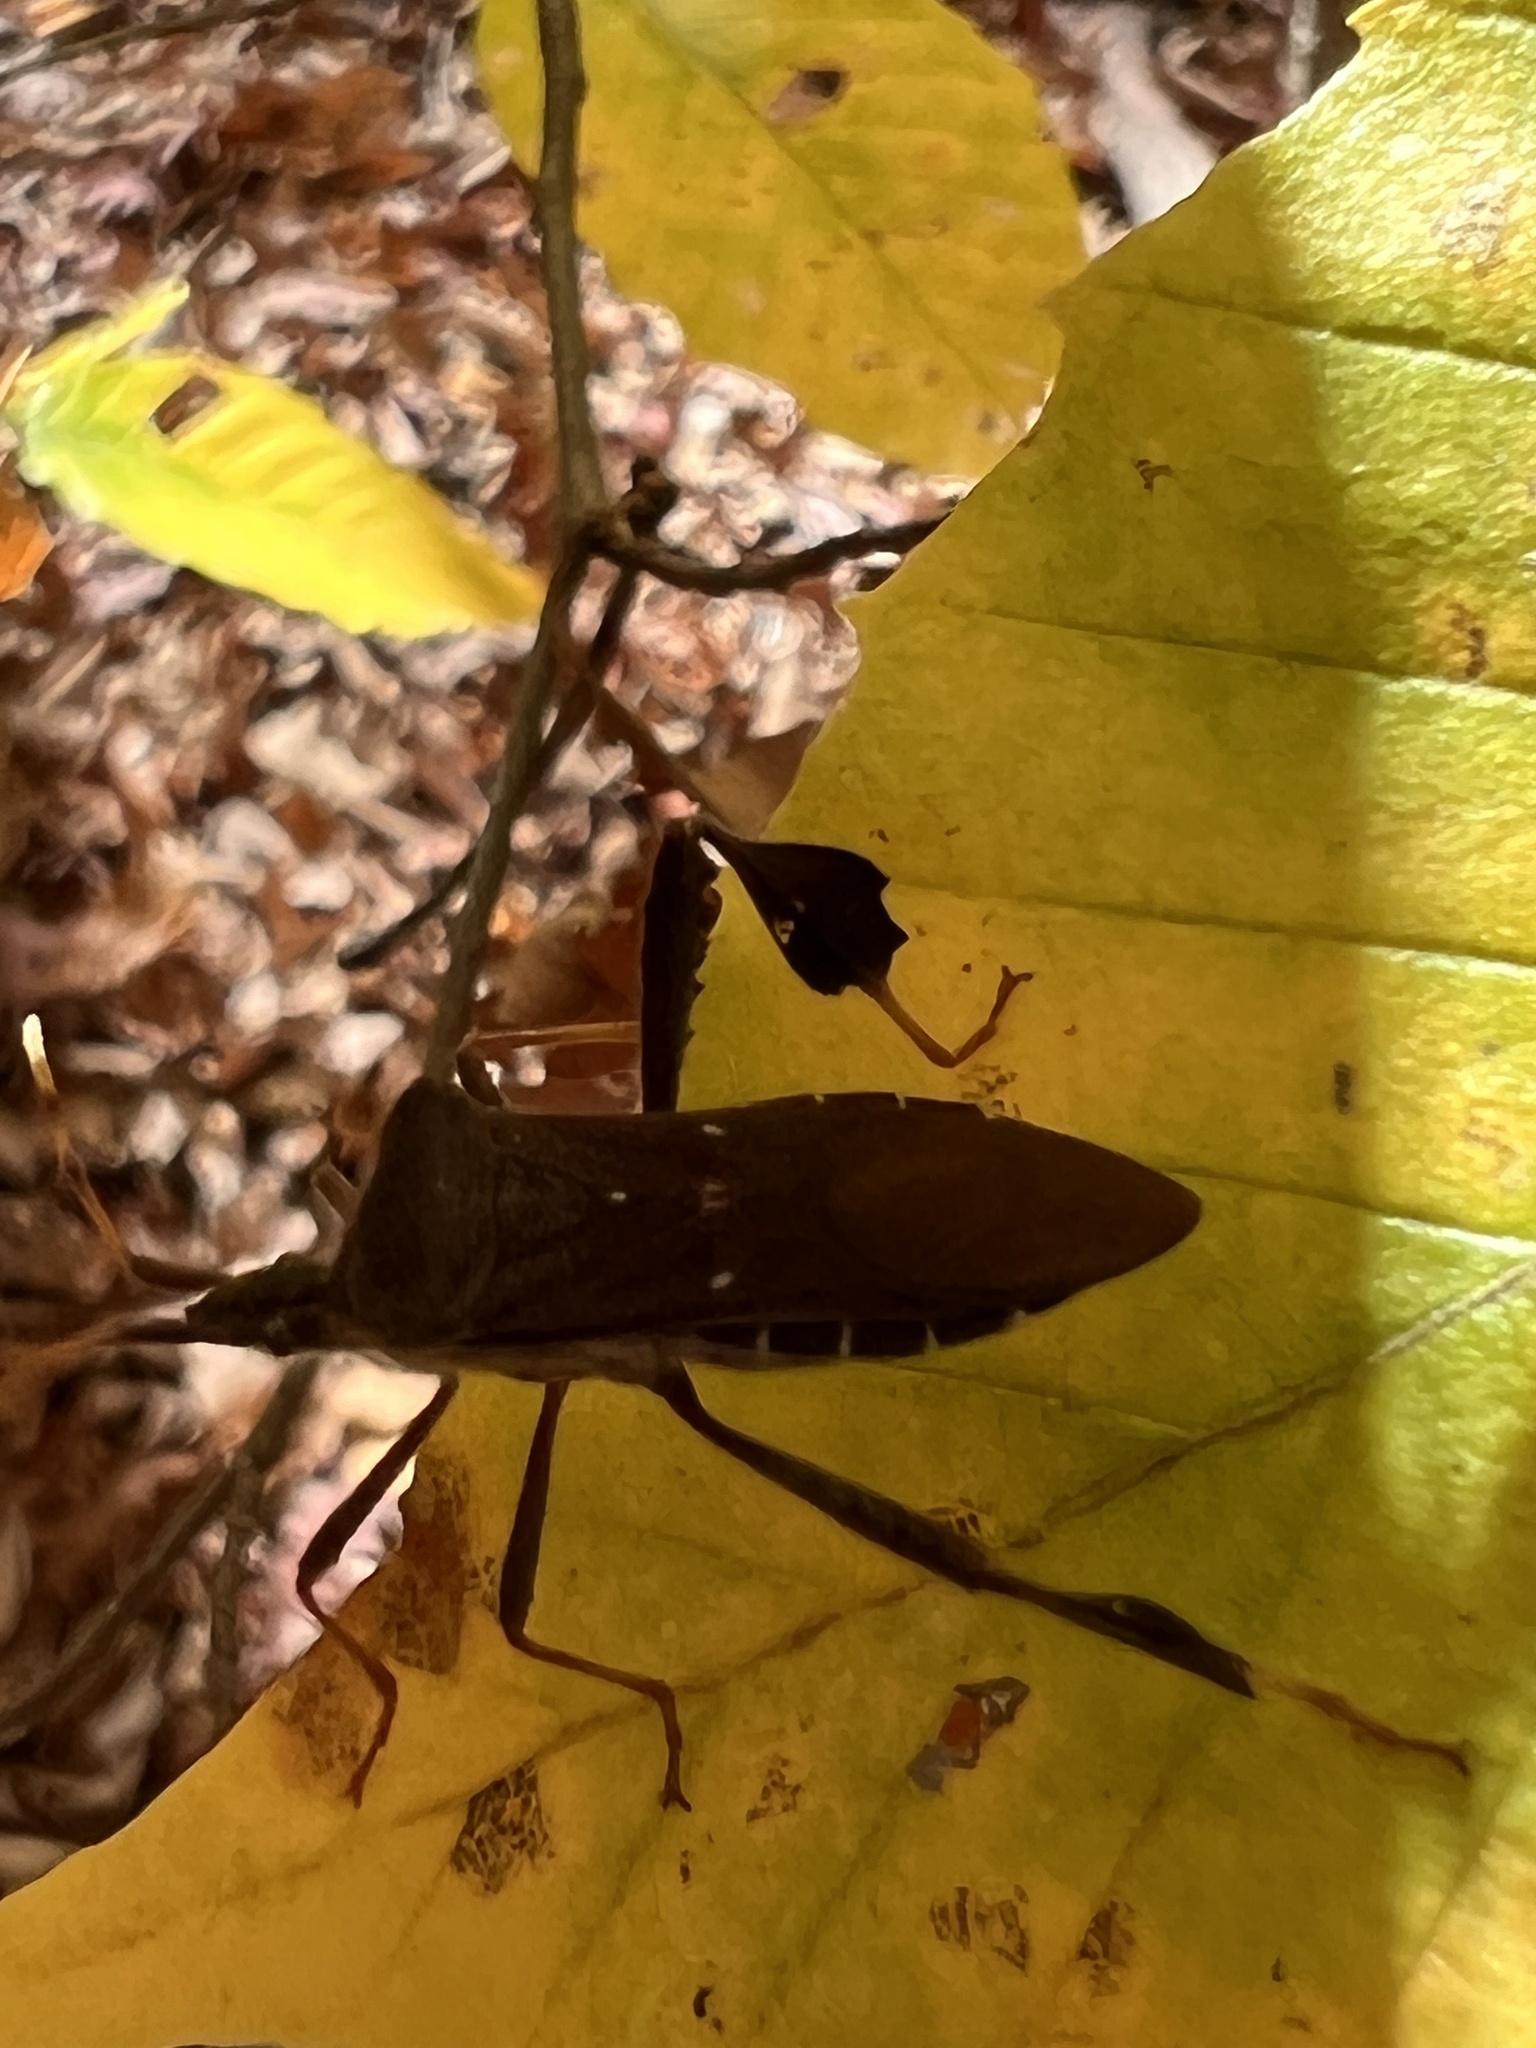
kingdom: Animalia
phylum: Arthropoda
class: Insecta
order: Hemiptera
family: Coreidae
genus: Leptoglossus
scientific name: Leptoglossus oppositus
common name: Northern leaf-footed bug
